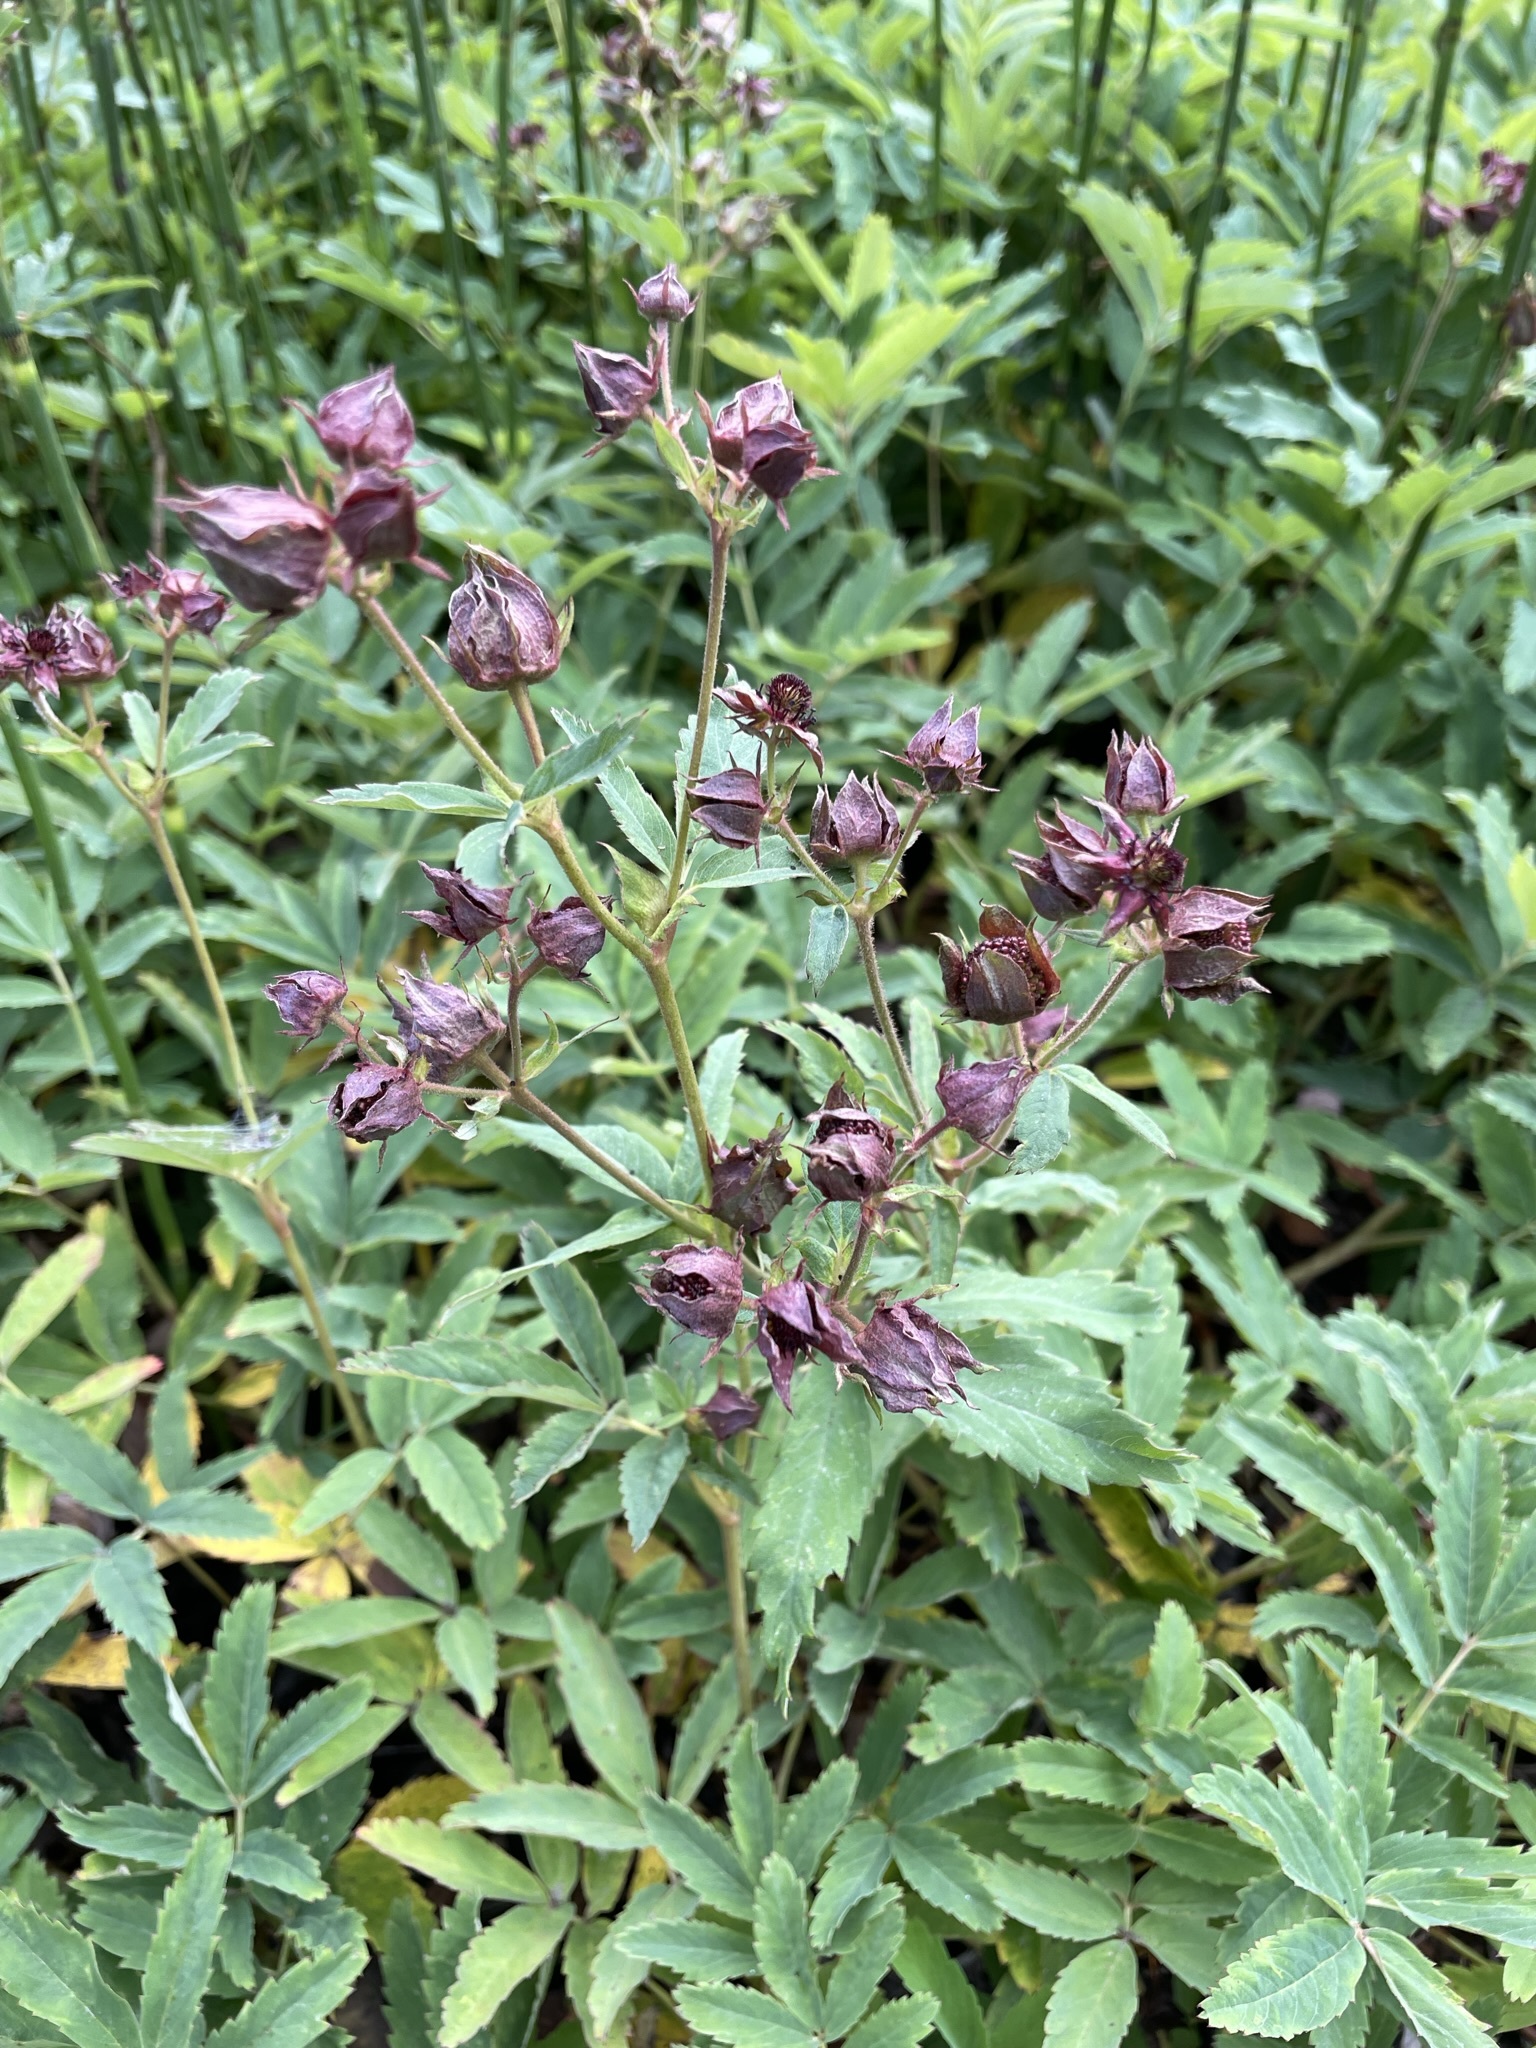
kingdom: Plantae
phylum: Tracheophyta
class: Magnoliopsida
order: Rosales
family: Rosaceae
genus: Comarum
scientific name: Comarum palustre
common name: Marsh cinquefoil
